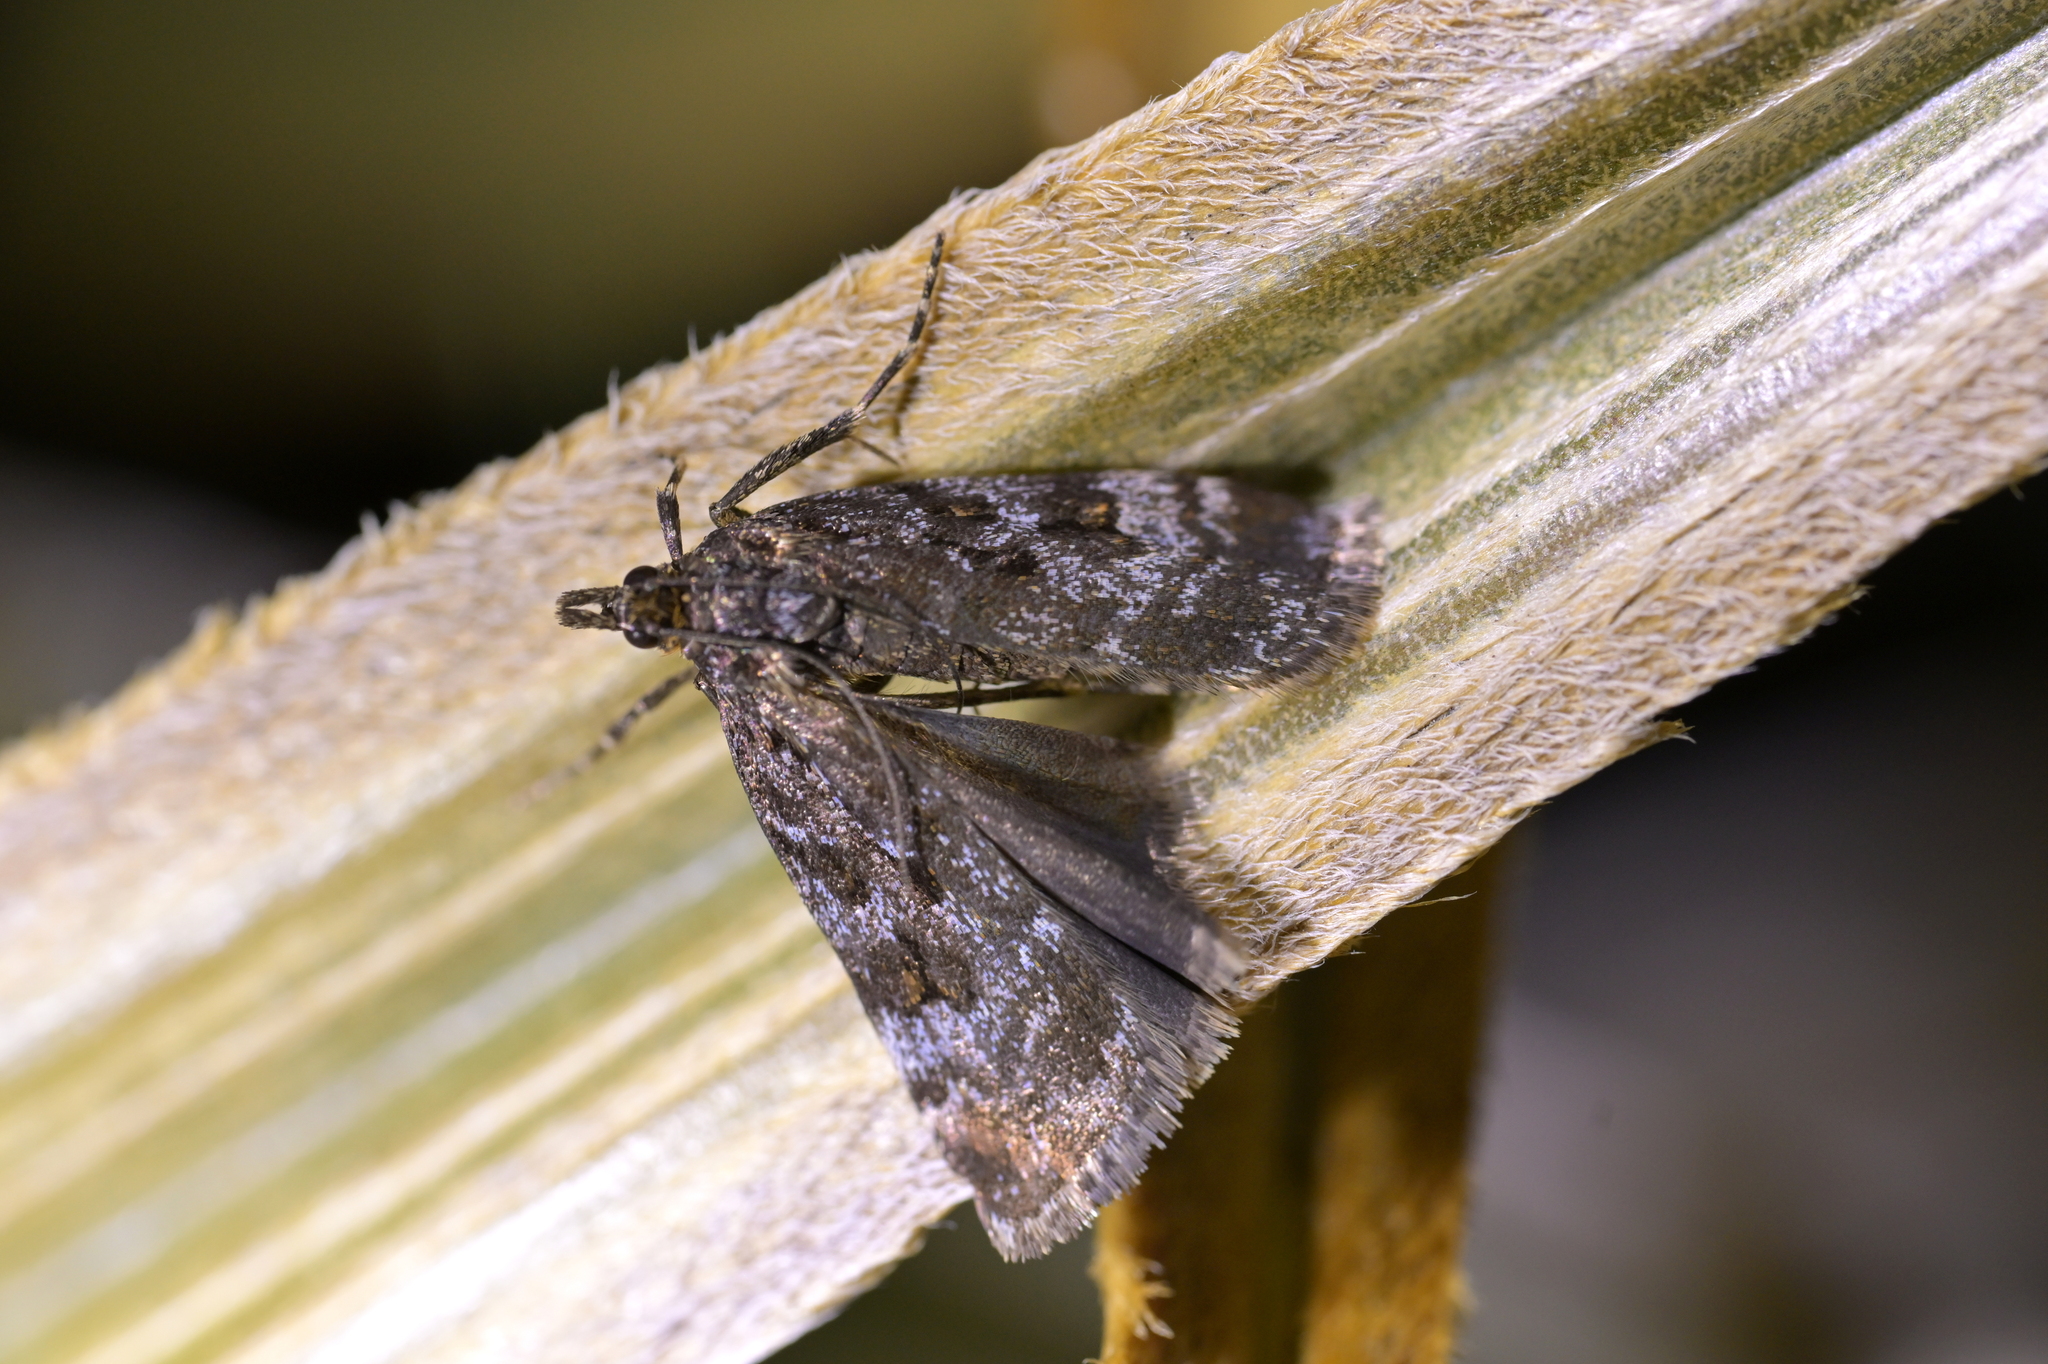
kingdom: Animalia
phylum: Arthropoda
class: Insecta
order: Lepidoptera
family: Crambidae
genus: Scoparia
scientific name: Scoparia lychnophanes
